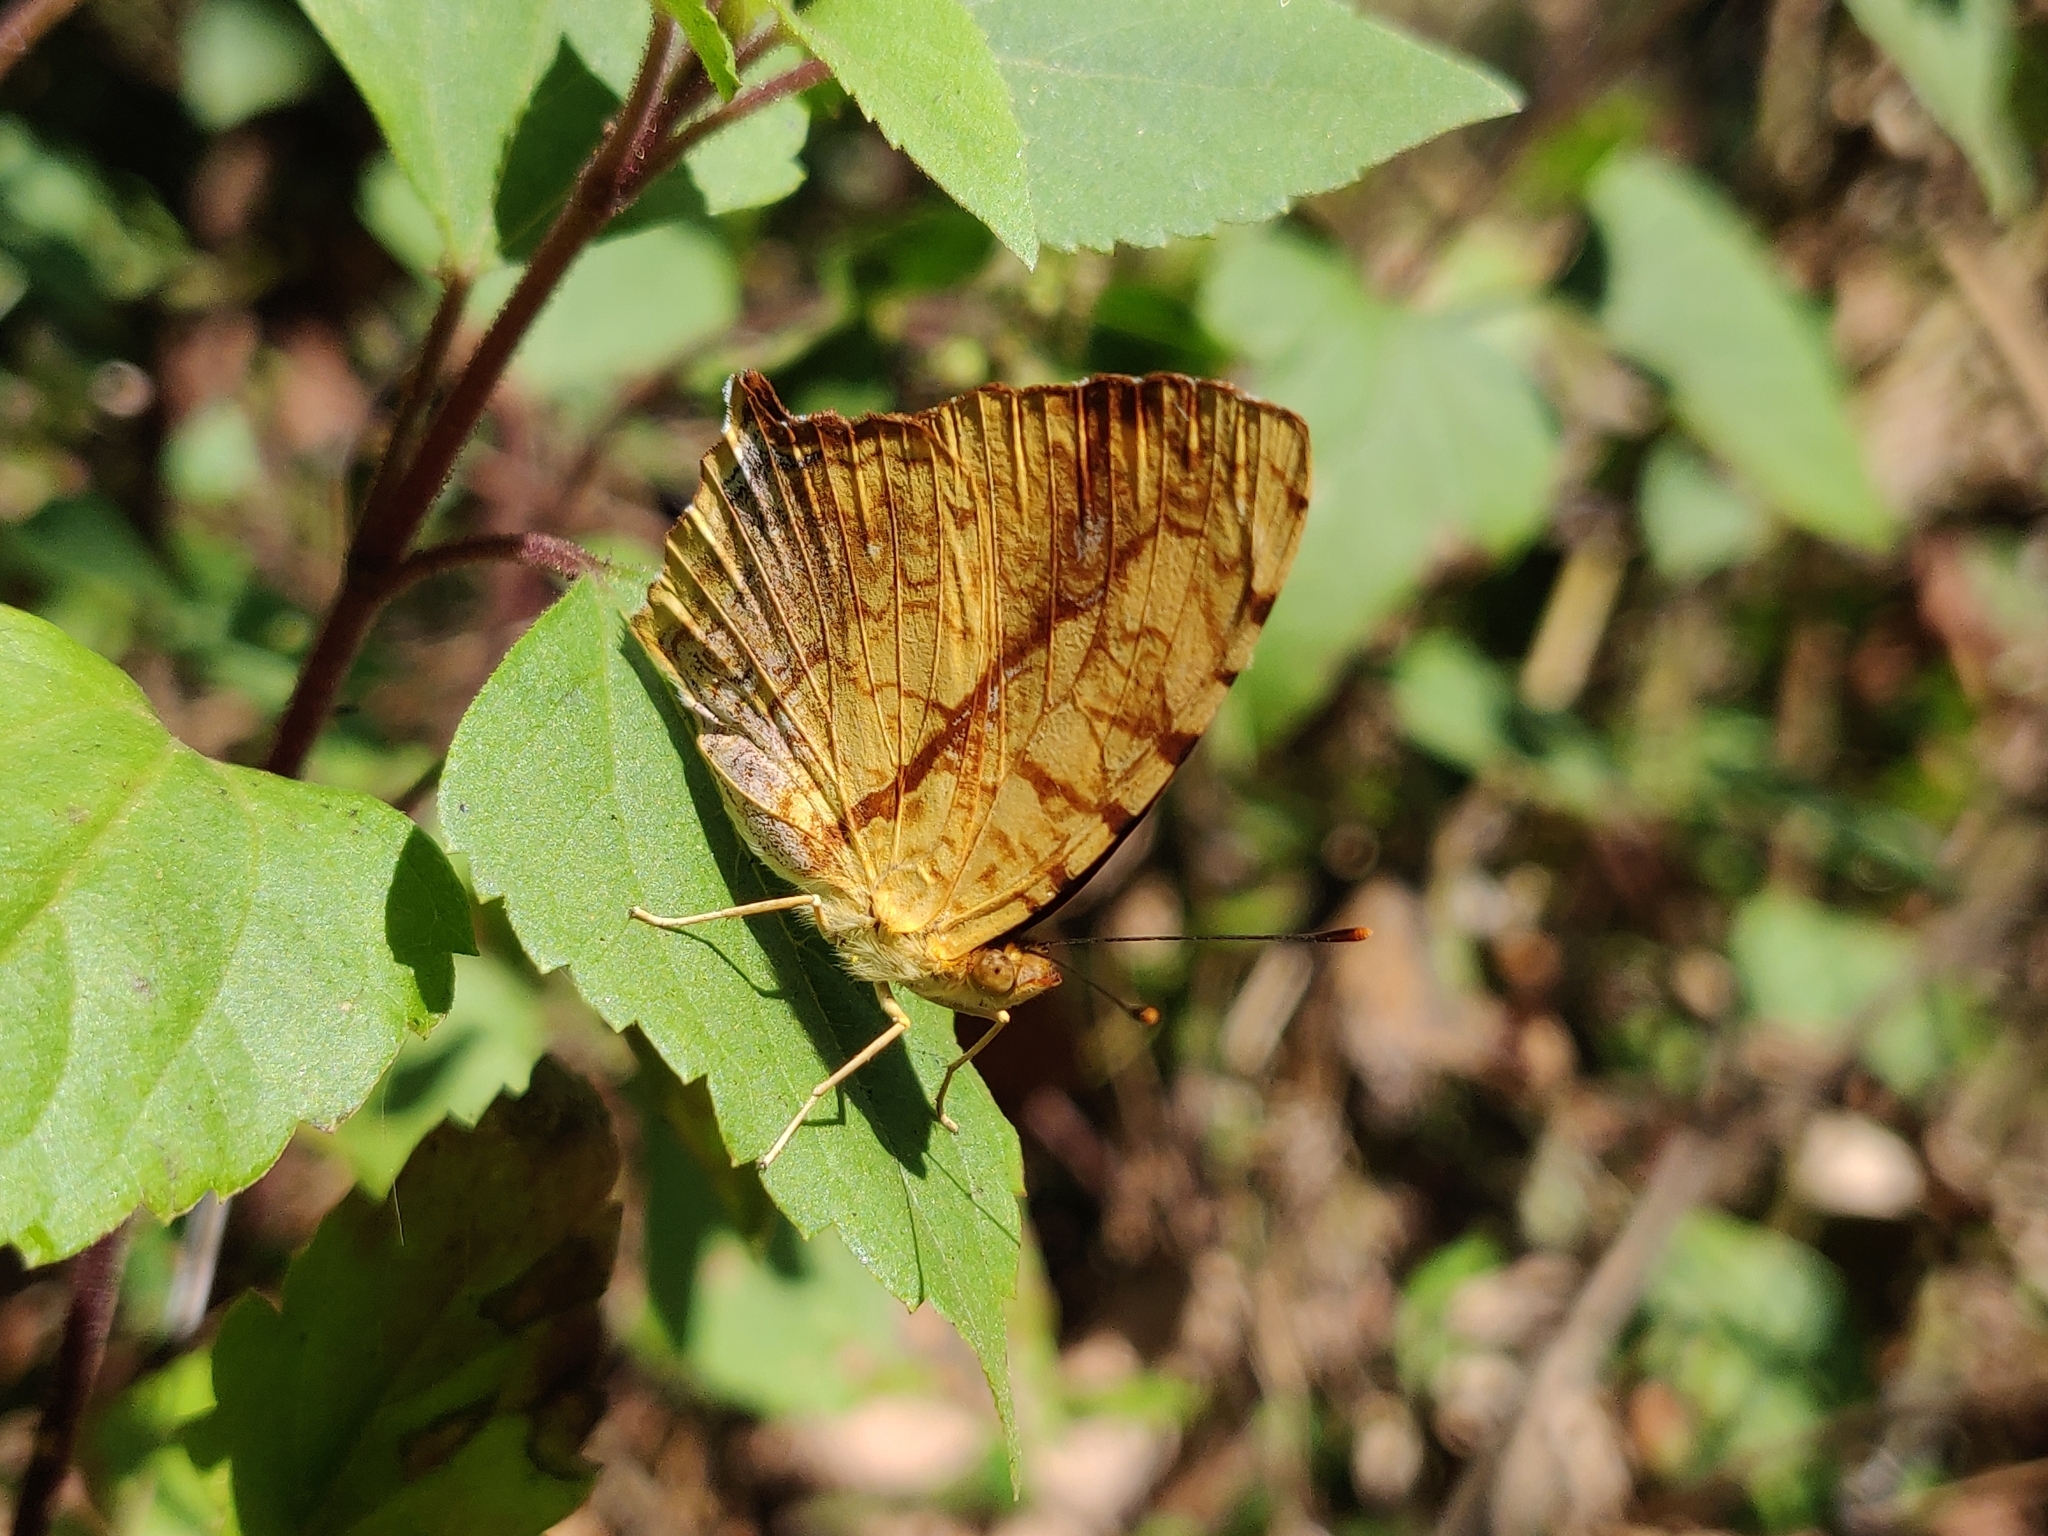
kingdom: Animalia
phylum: Arthropoda
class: Insecta
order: Lepidoptera
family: Nymphalidae
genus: Symbrenthia
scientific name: Symbrenthia hypselis
